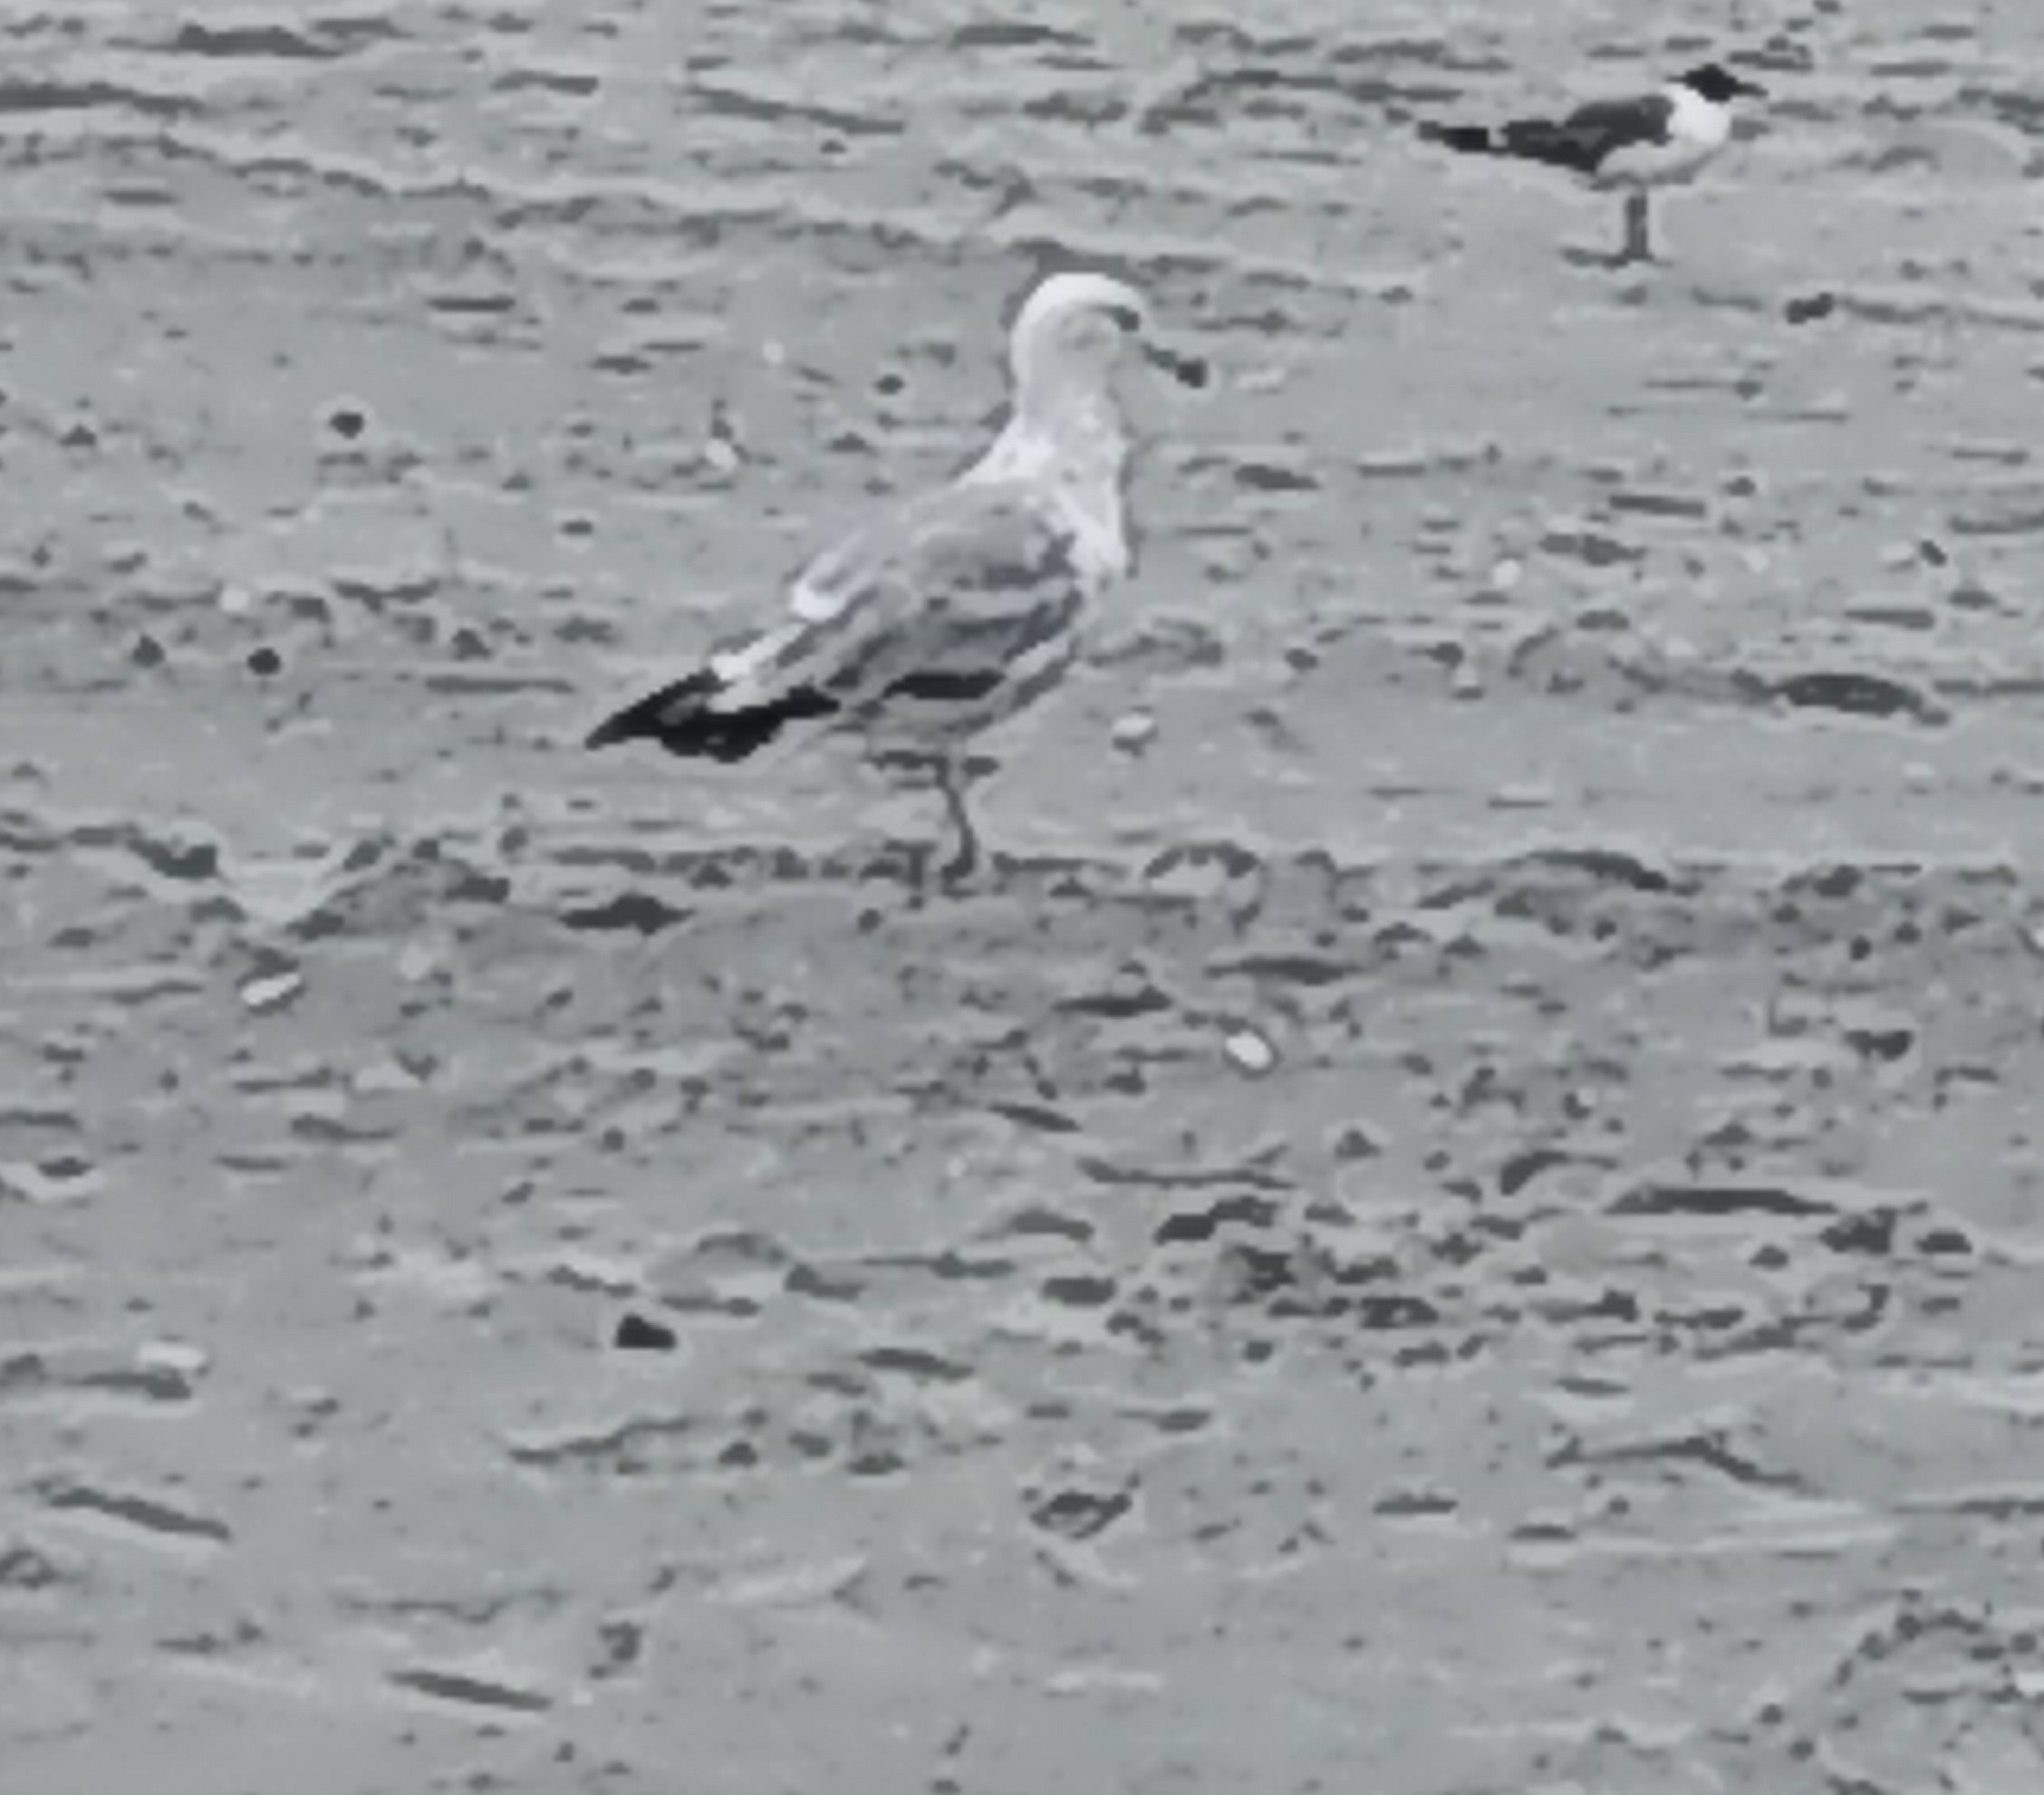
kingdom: Animalia
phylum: Chordata
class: Aves
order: Charadriiformes
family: Laridae
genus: Larus
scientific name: Larus argentatus
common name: Herring gull
